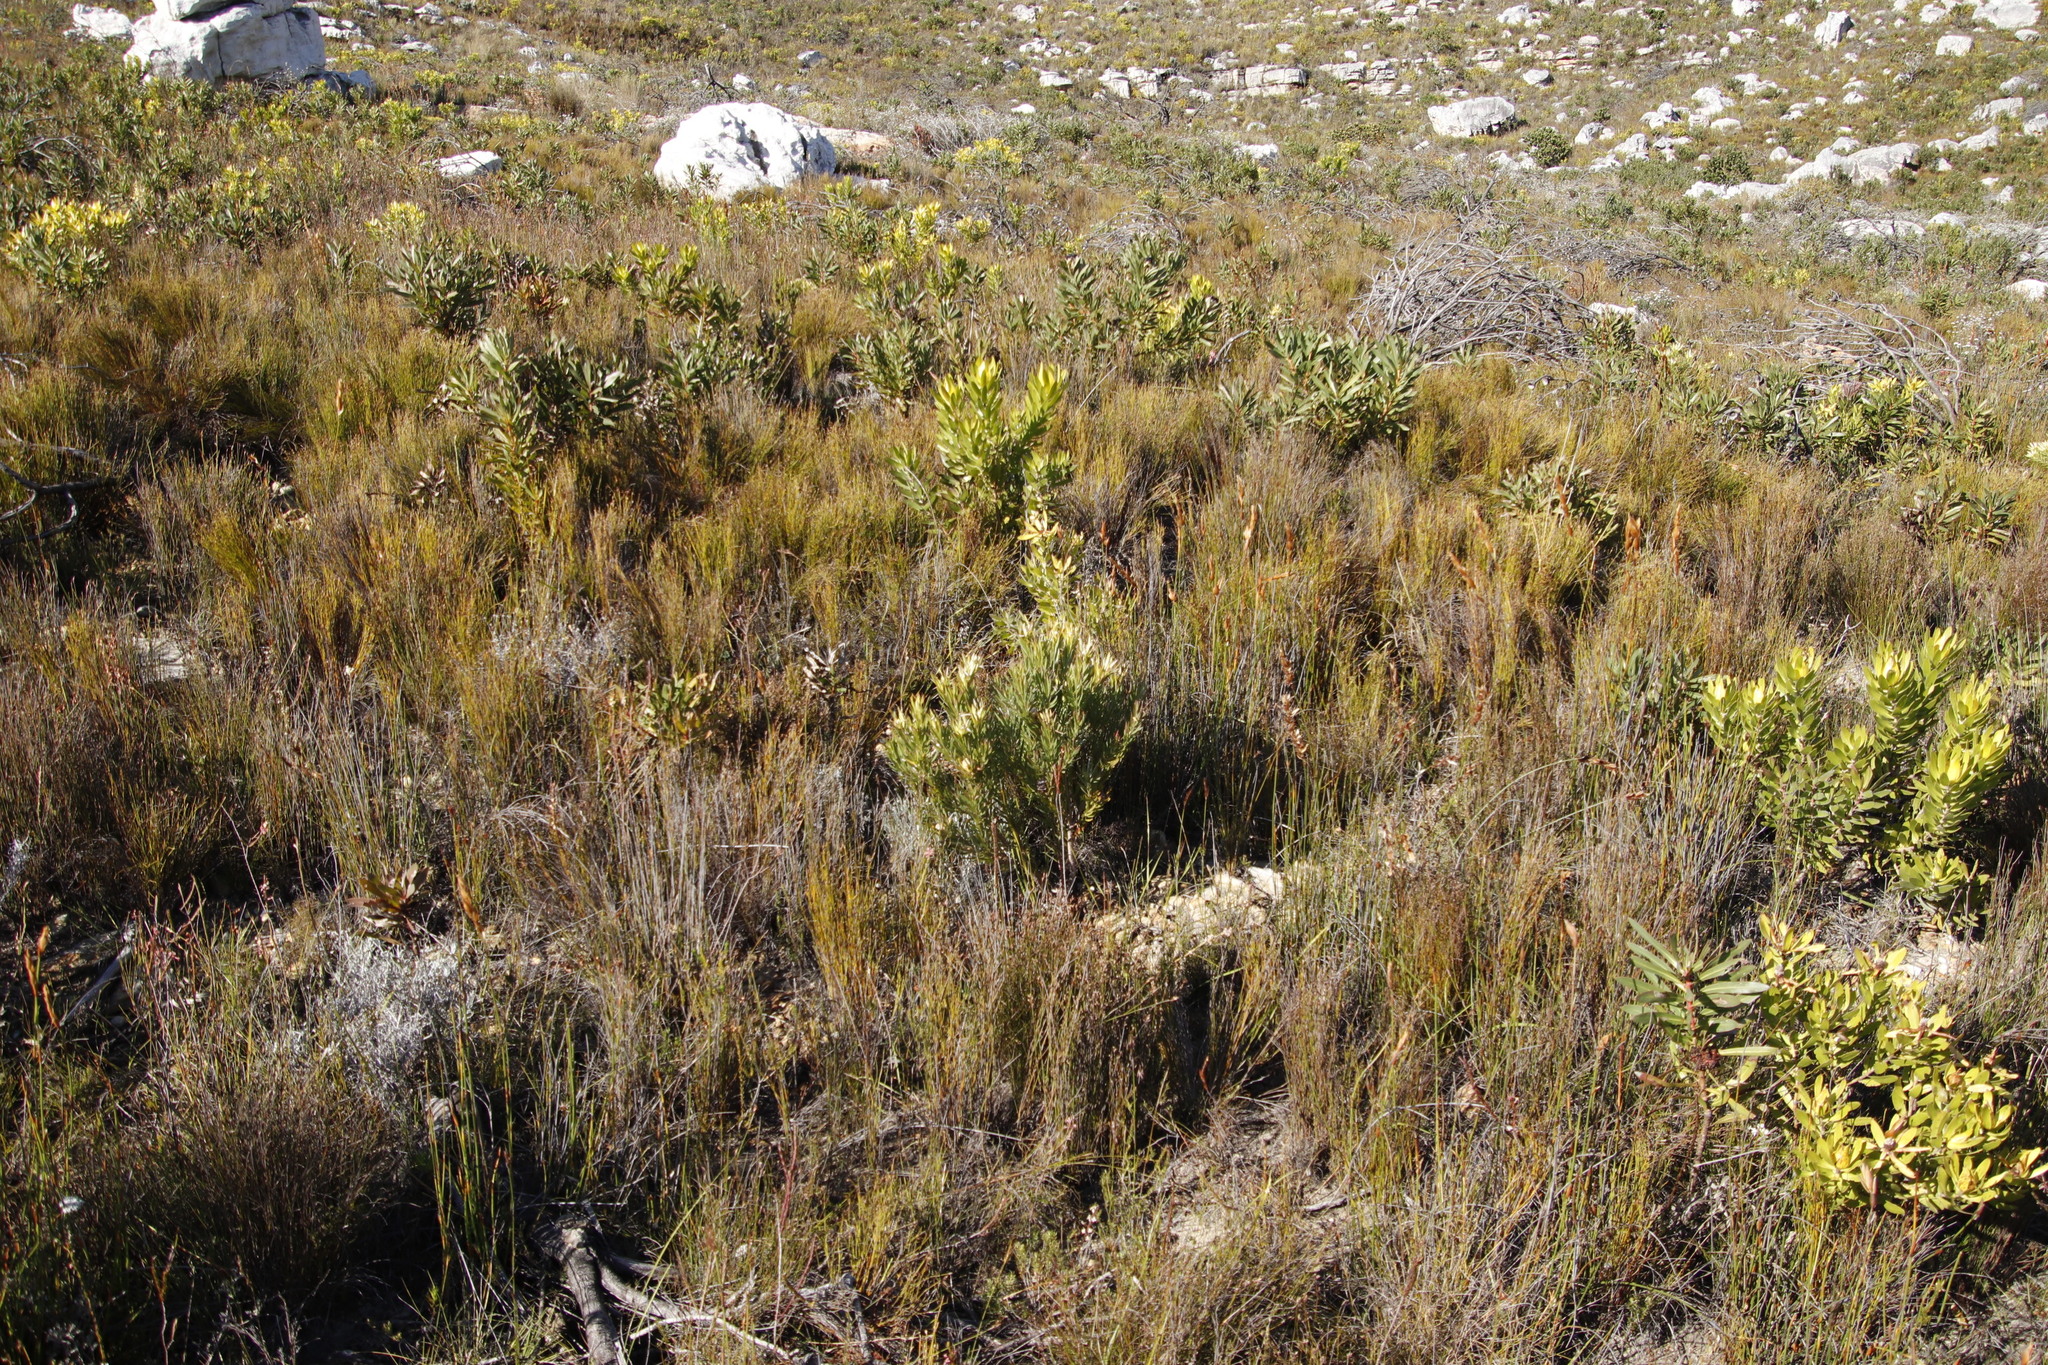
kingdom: Plantae
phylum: Tracheophyta
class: Magnoliopsida
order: Proteales
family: Proteaceae
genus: Leucadendron
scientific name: Leucadendron xanthoconus
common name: Sickle-leaf conebush
